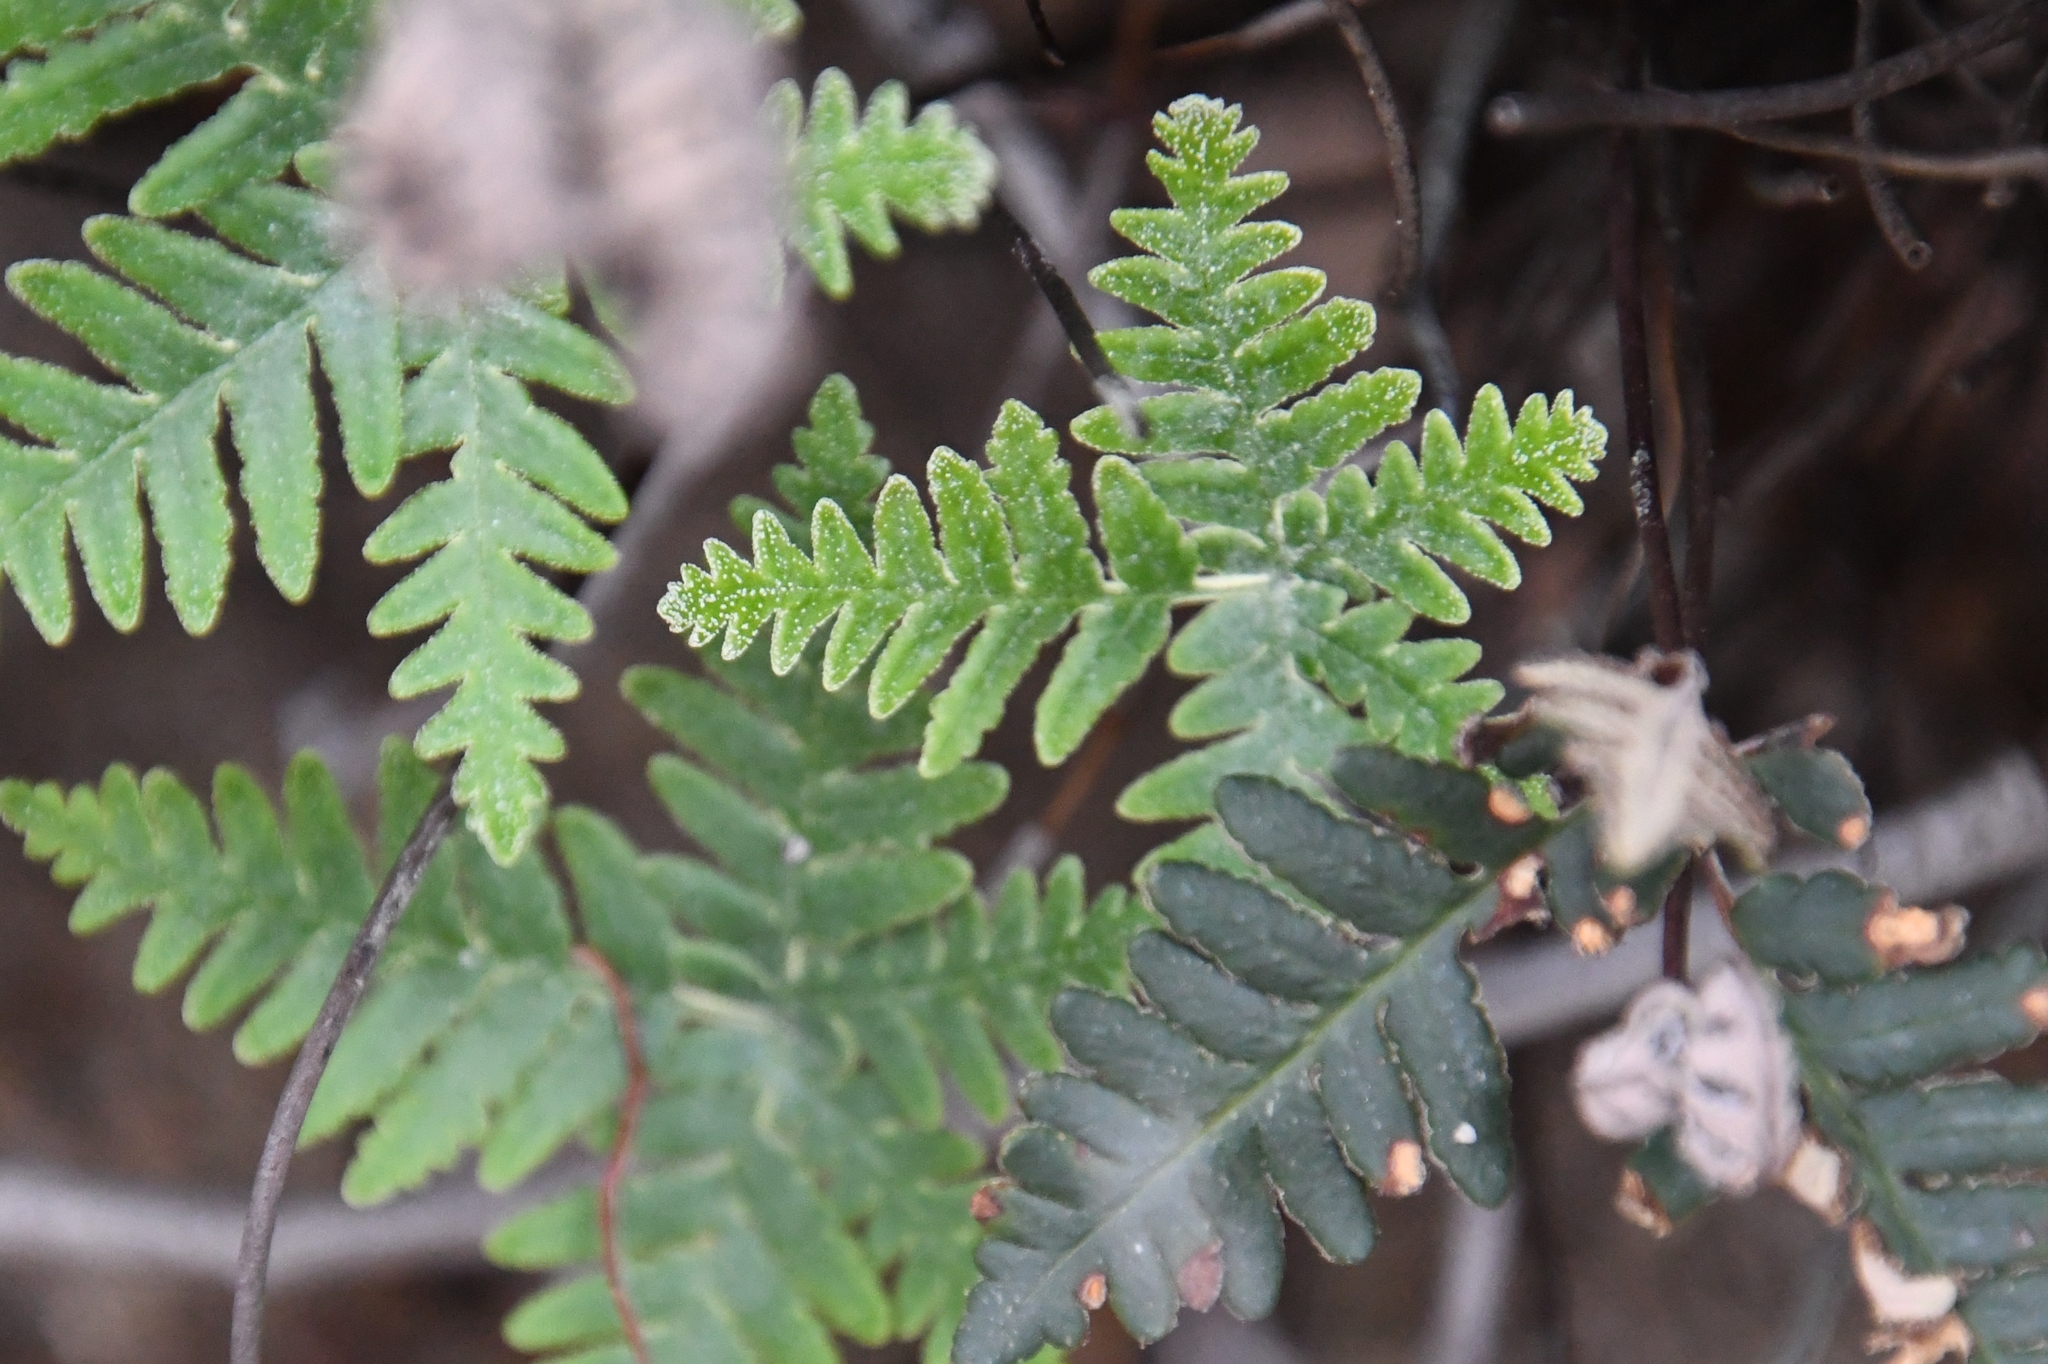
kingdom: Plantae
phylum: Tracheophyta
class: Polypodiopsida
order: Polypodiales
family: Pteridaceae
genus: Notholaena
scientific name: Notholaena standleyi
